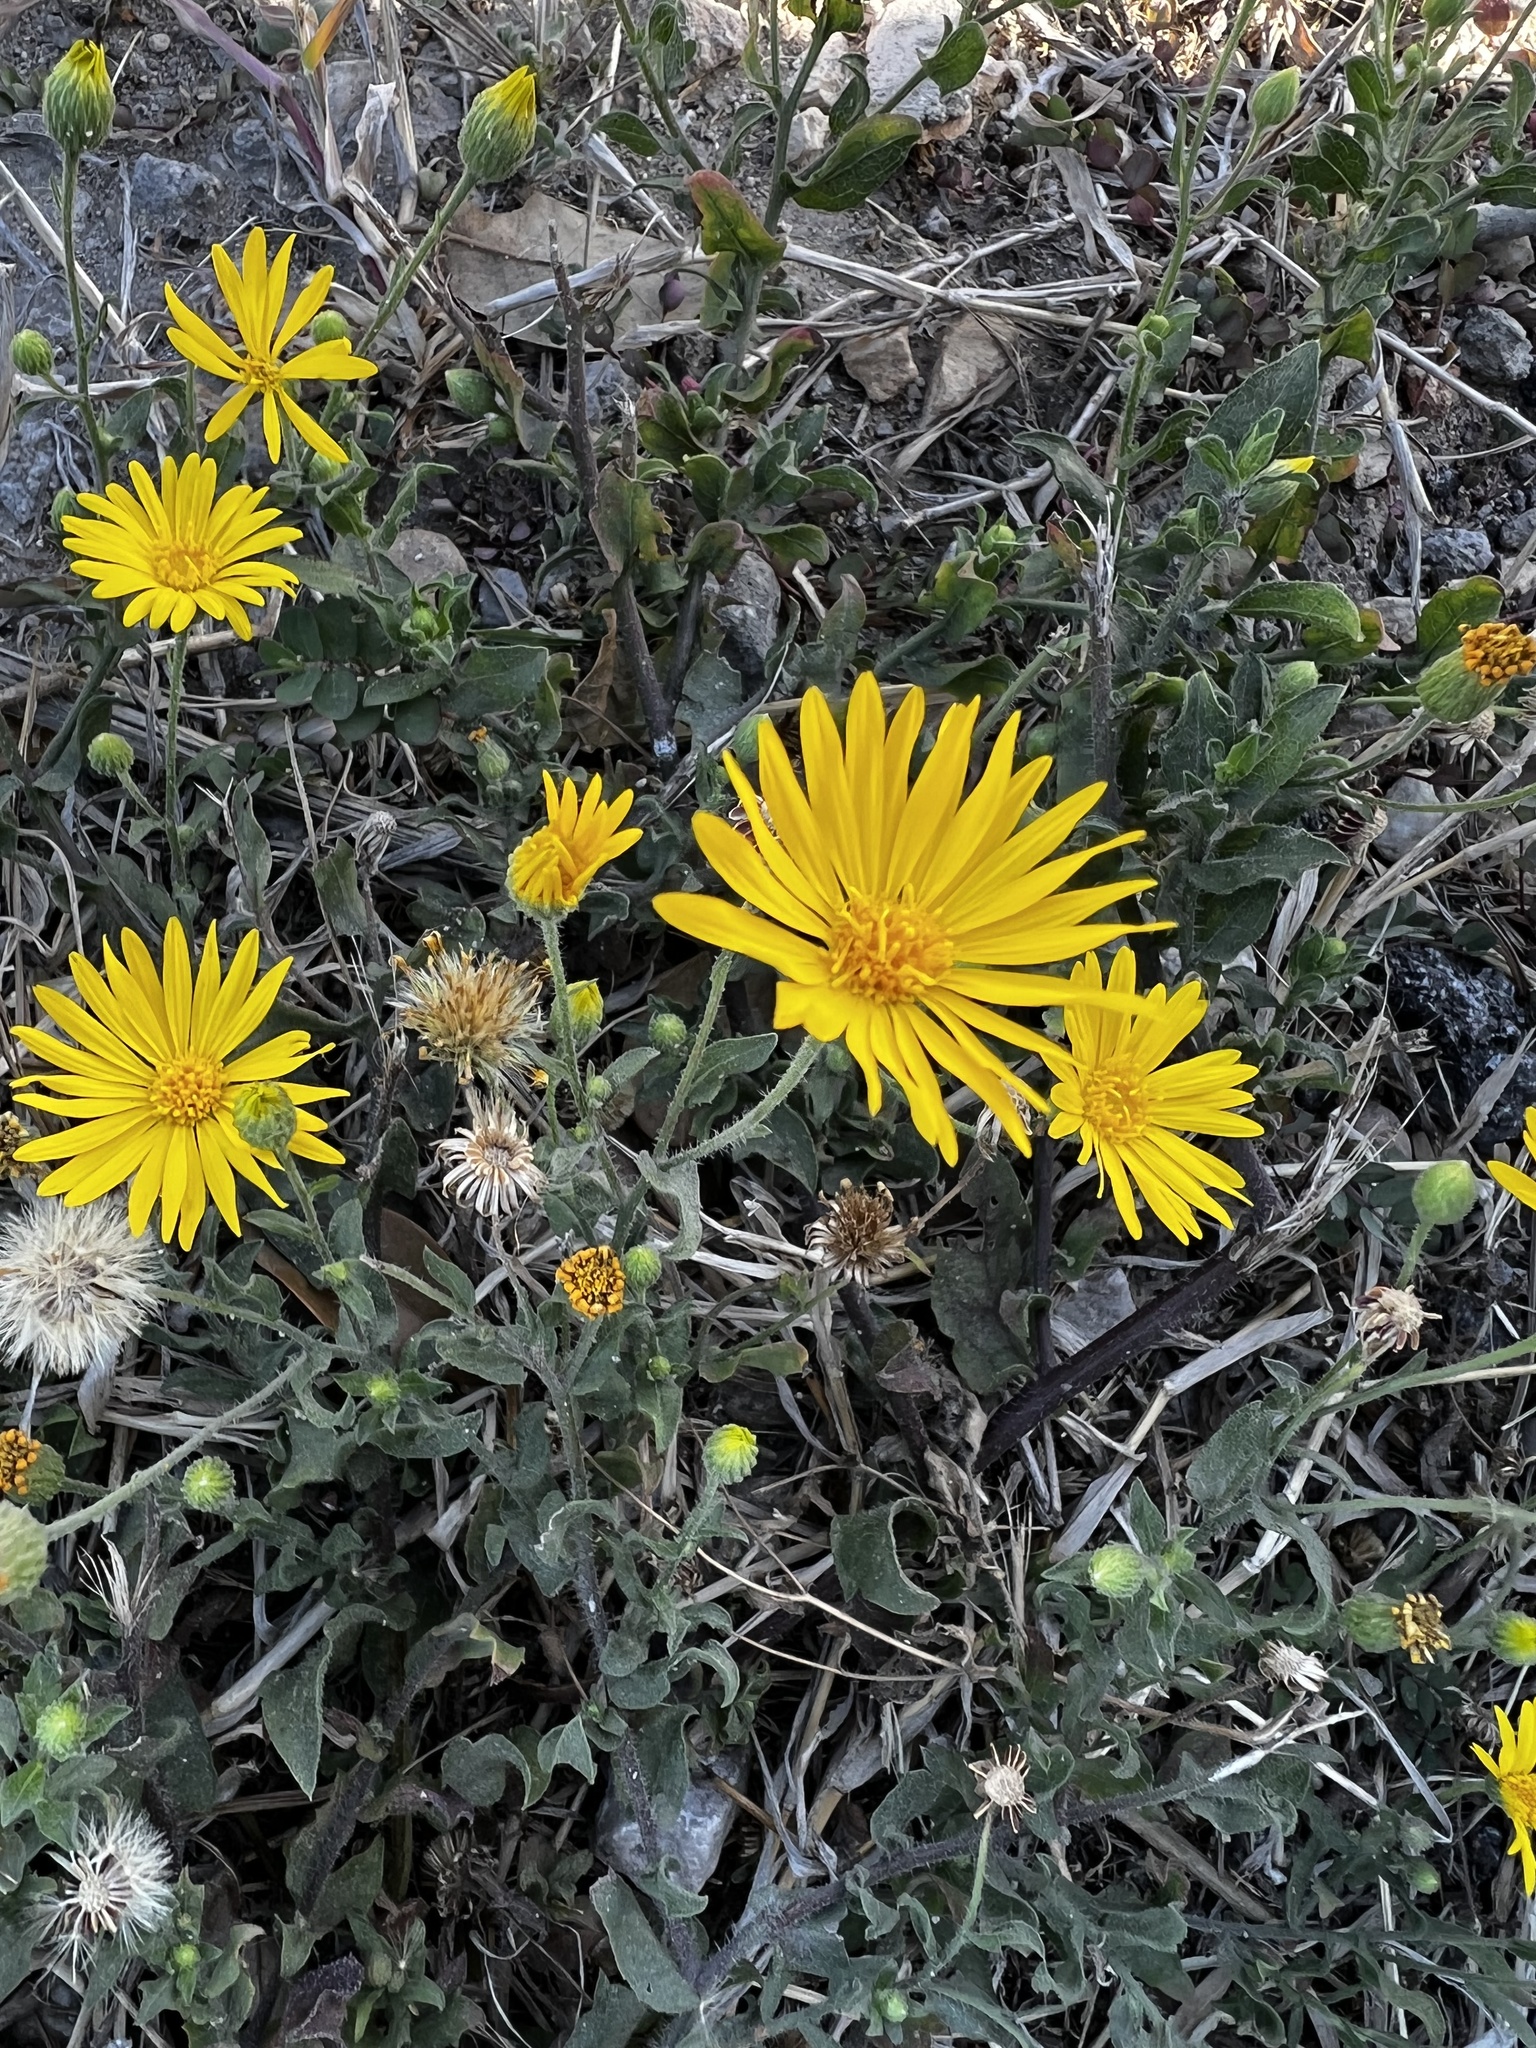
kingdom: Plantae
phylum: Tracheophyta
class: Magnoliopsida
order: Asterales
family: Asteraceae
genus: Heterotheca
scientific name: Heterotheca subaxillaris
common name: Camphorweed
